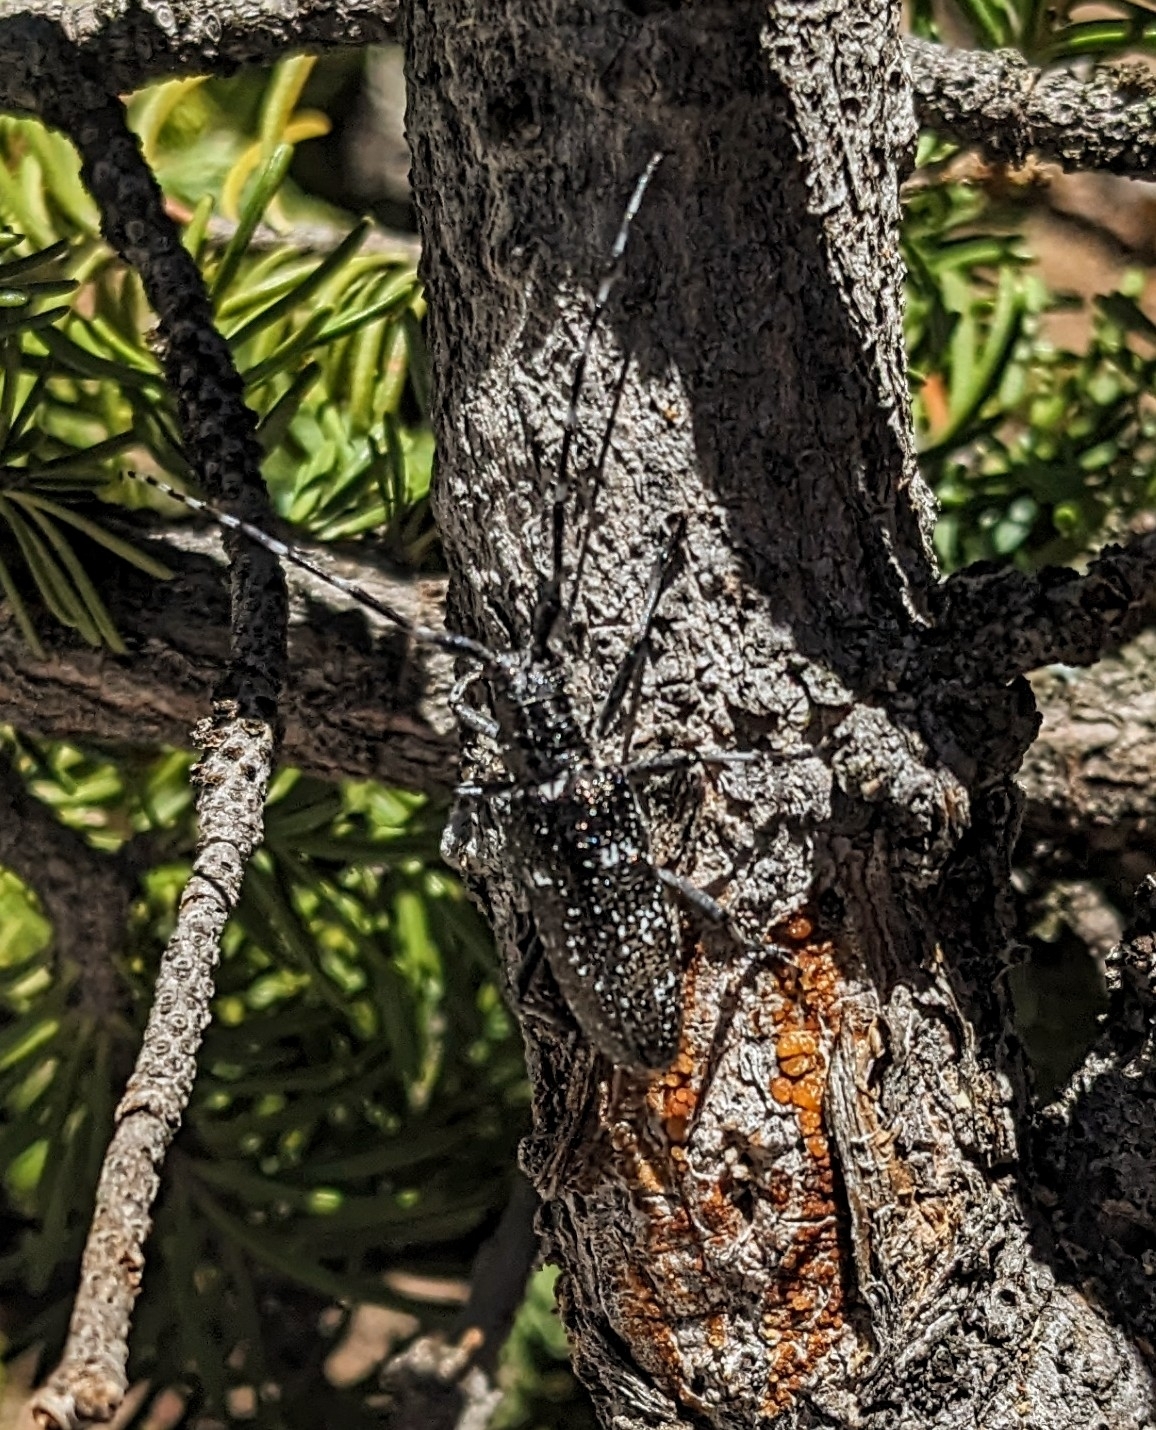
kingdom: Animalia
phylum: Arthropoda
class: Insecta
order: Coleoptera
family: Cerambycidae
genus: Monochamus
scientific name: Monochamus scutellatus
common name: White-spotted sawyer beetle
